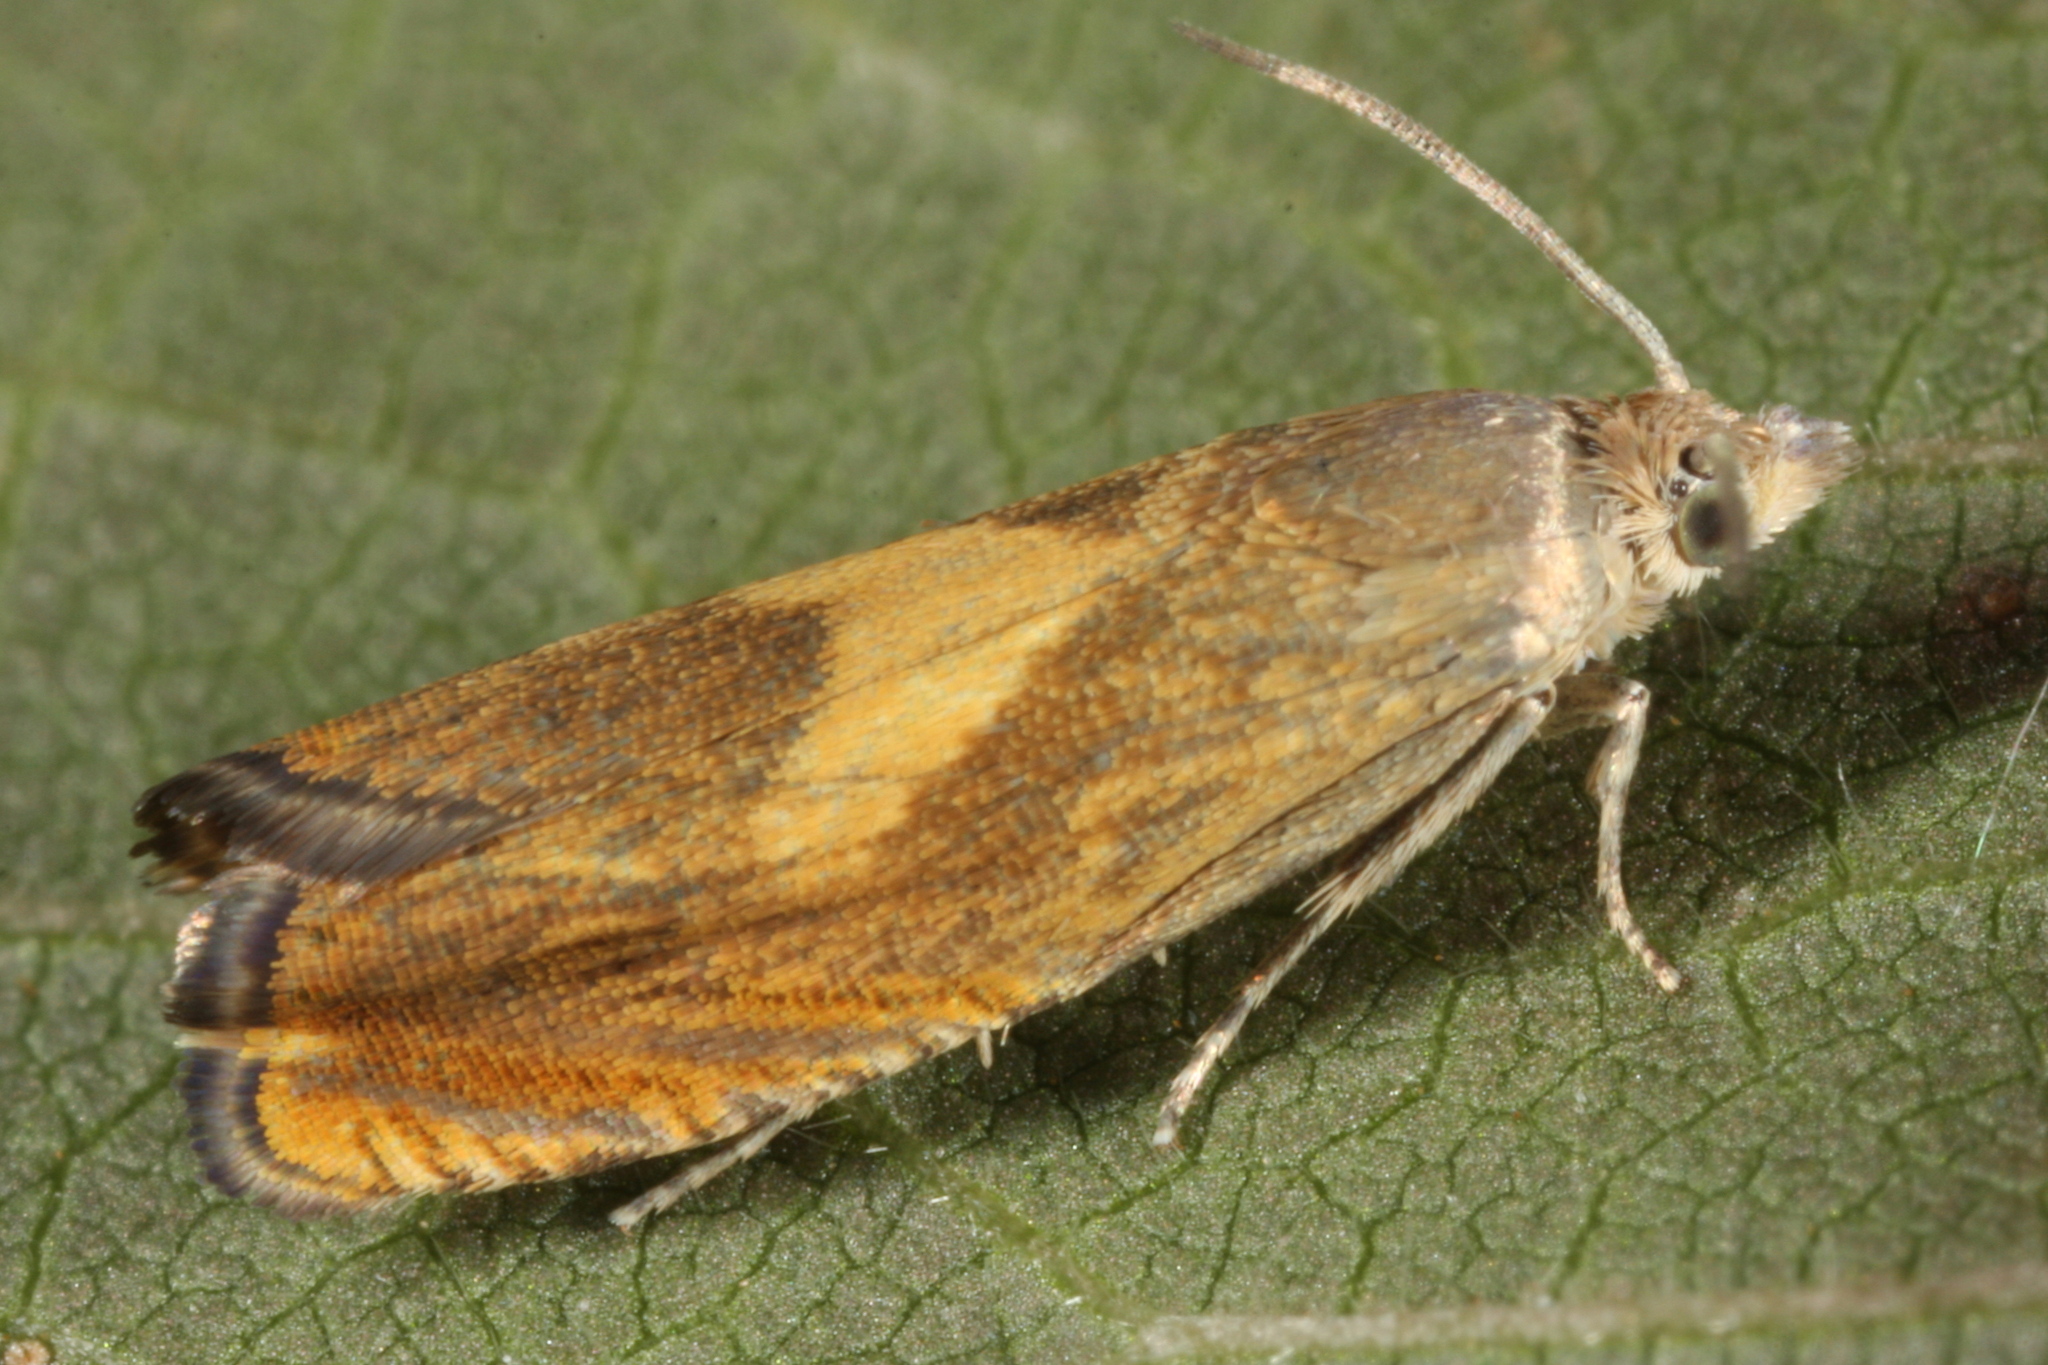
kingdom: Animalia
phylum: Arthropoda
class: Insecta
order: Lepidoptera
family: Tortricidae
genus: Dichrorampha
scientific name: Dichrorampha vancouverana
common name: Gold-fringed drill
